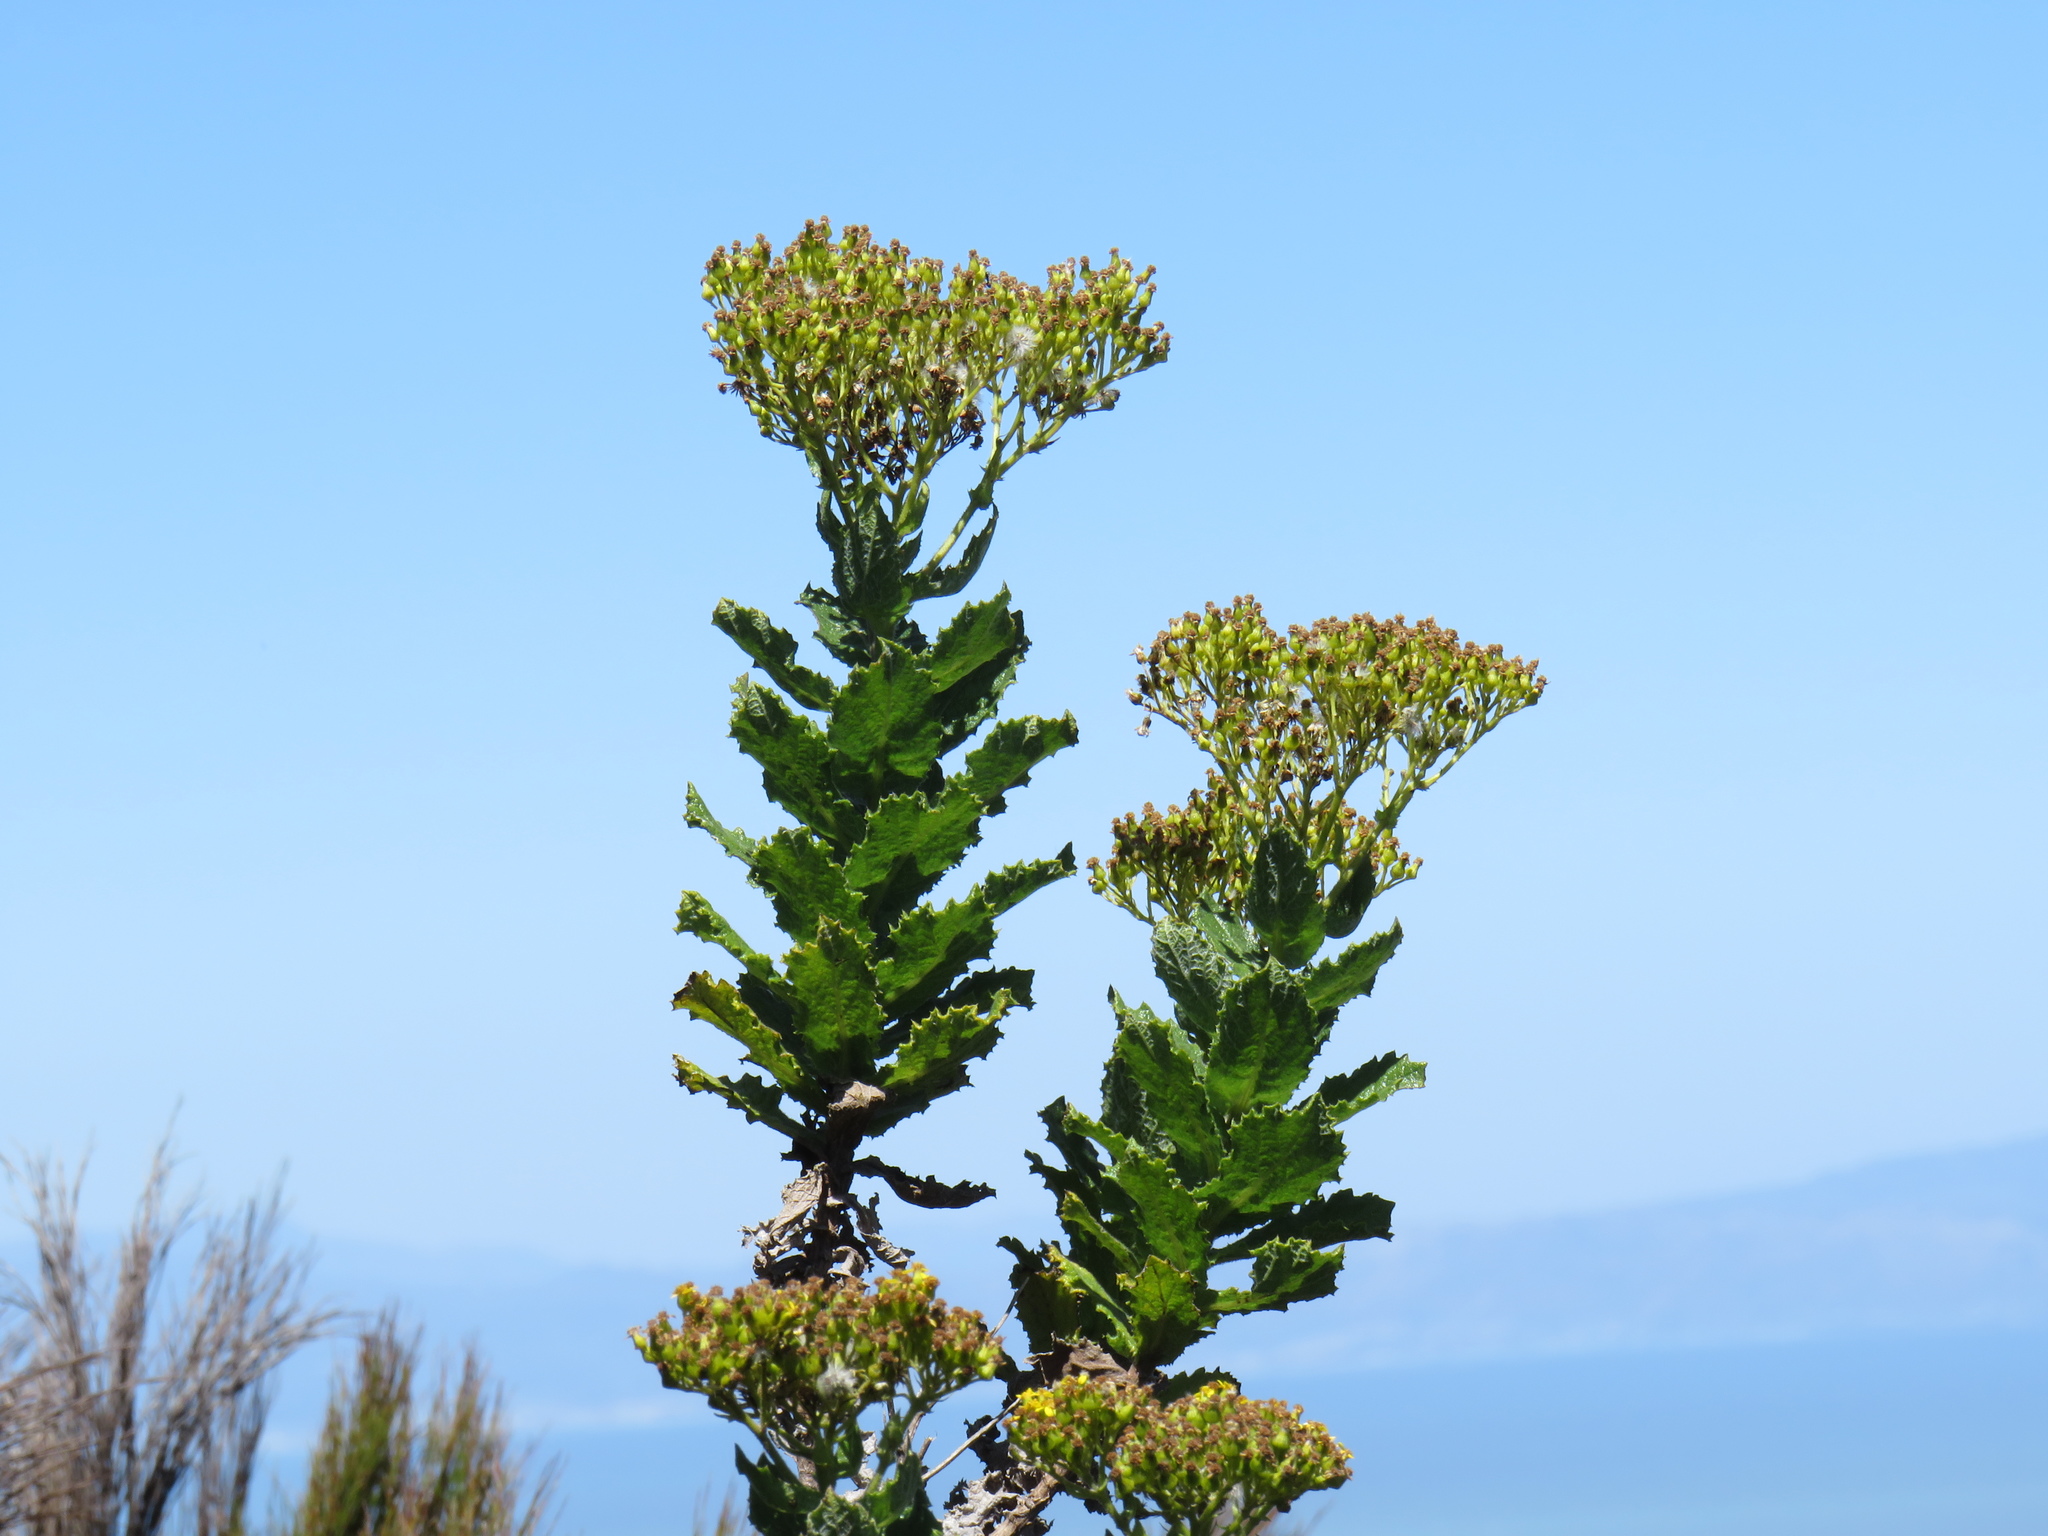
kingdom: Plantae
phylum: Tracheophyta
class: Magnoliopsida
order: Asterales
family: Asteraceae
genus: Senecio
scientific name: Senecio rigidus
